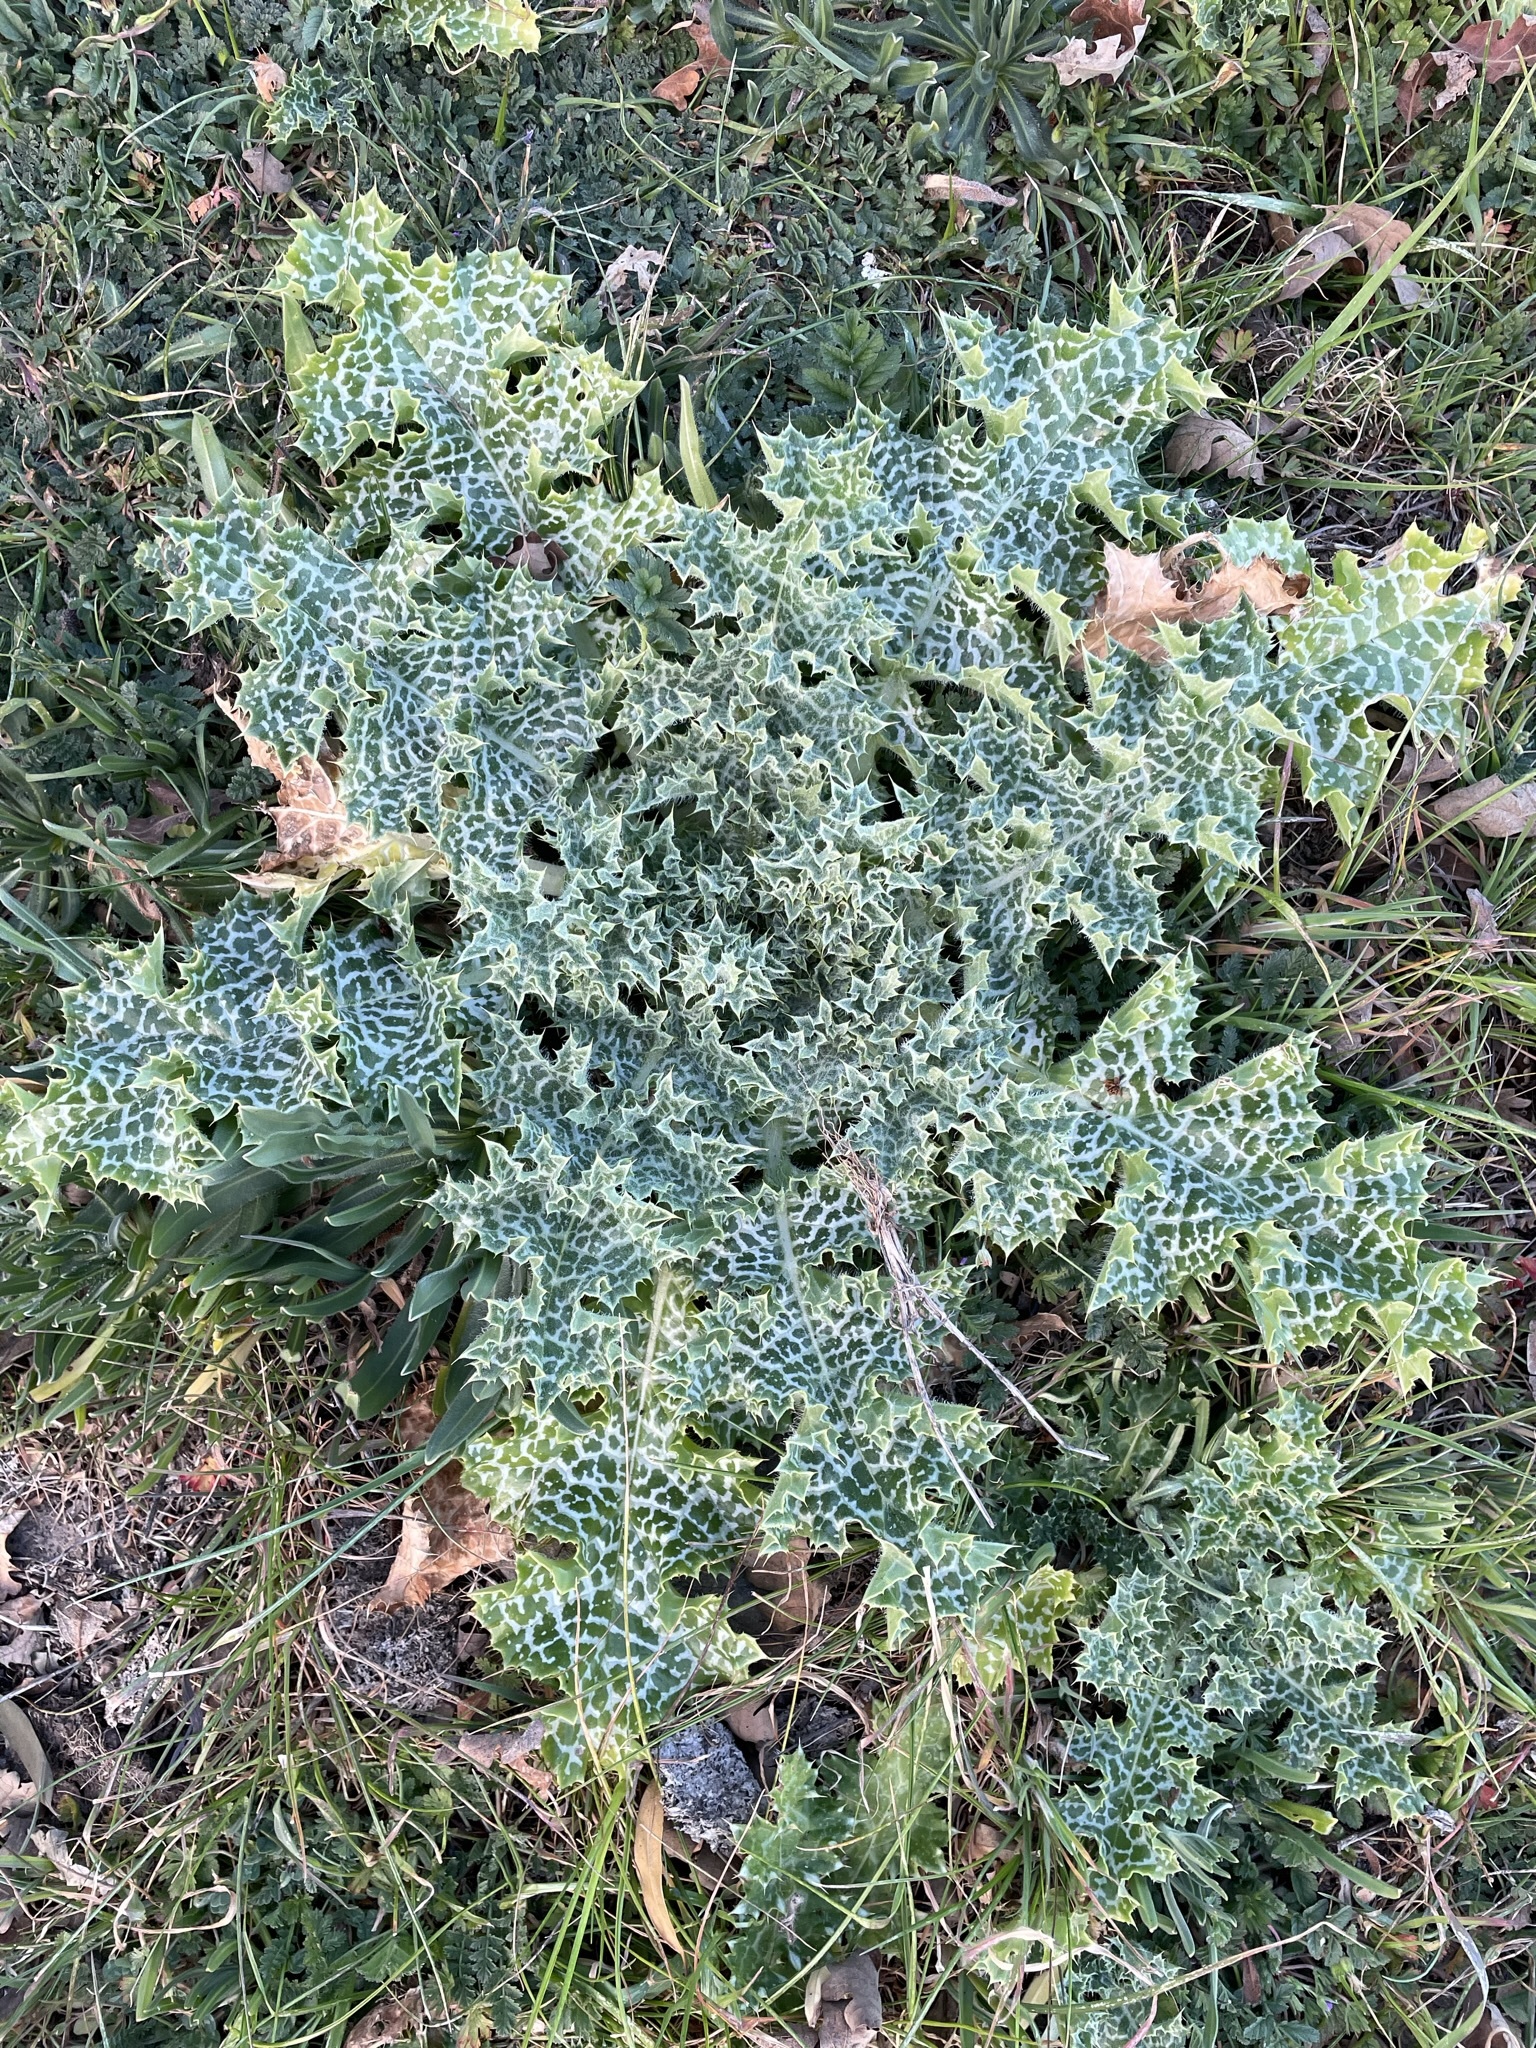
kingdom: Plantae
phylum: Tracheophyta
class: Magnoliopsida
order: Asterales
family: Asteraceae
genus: Silybum
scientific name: Silybum marianum
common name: Milk thistle
